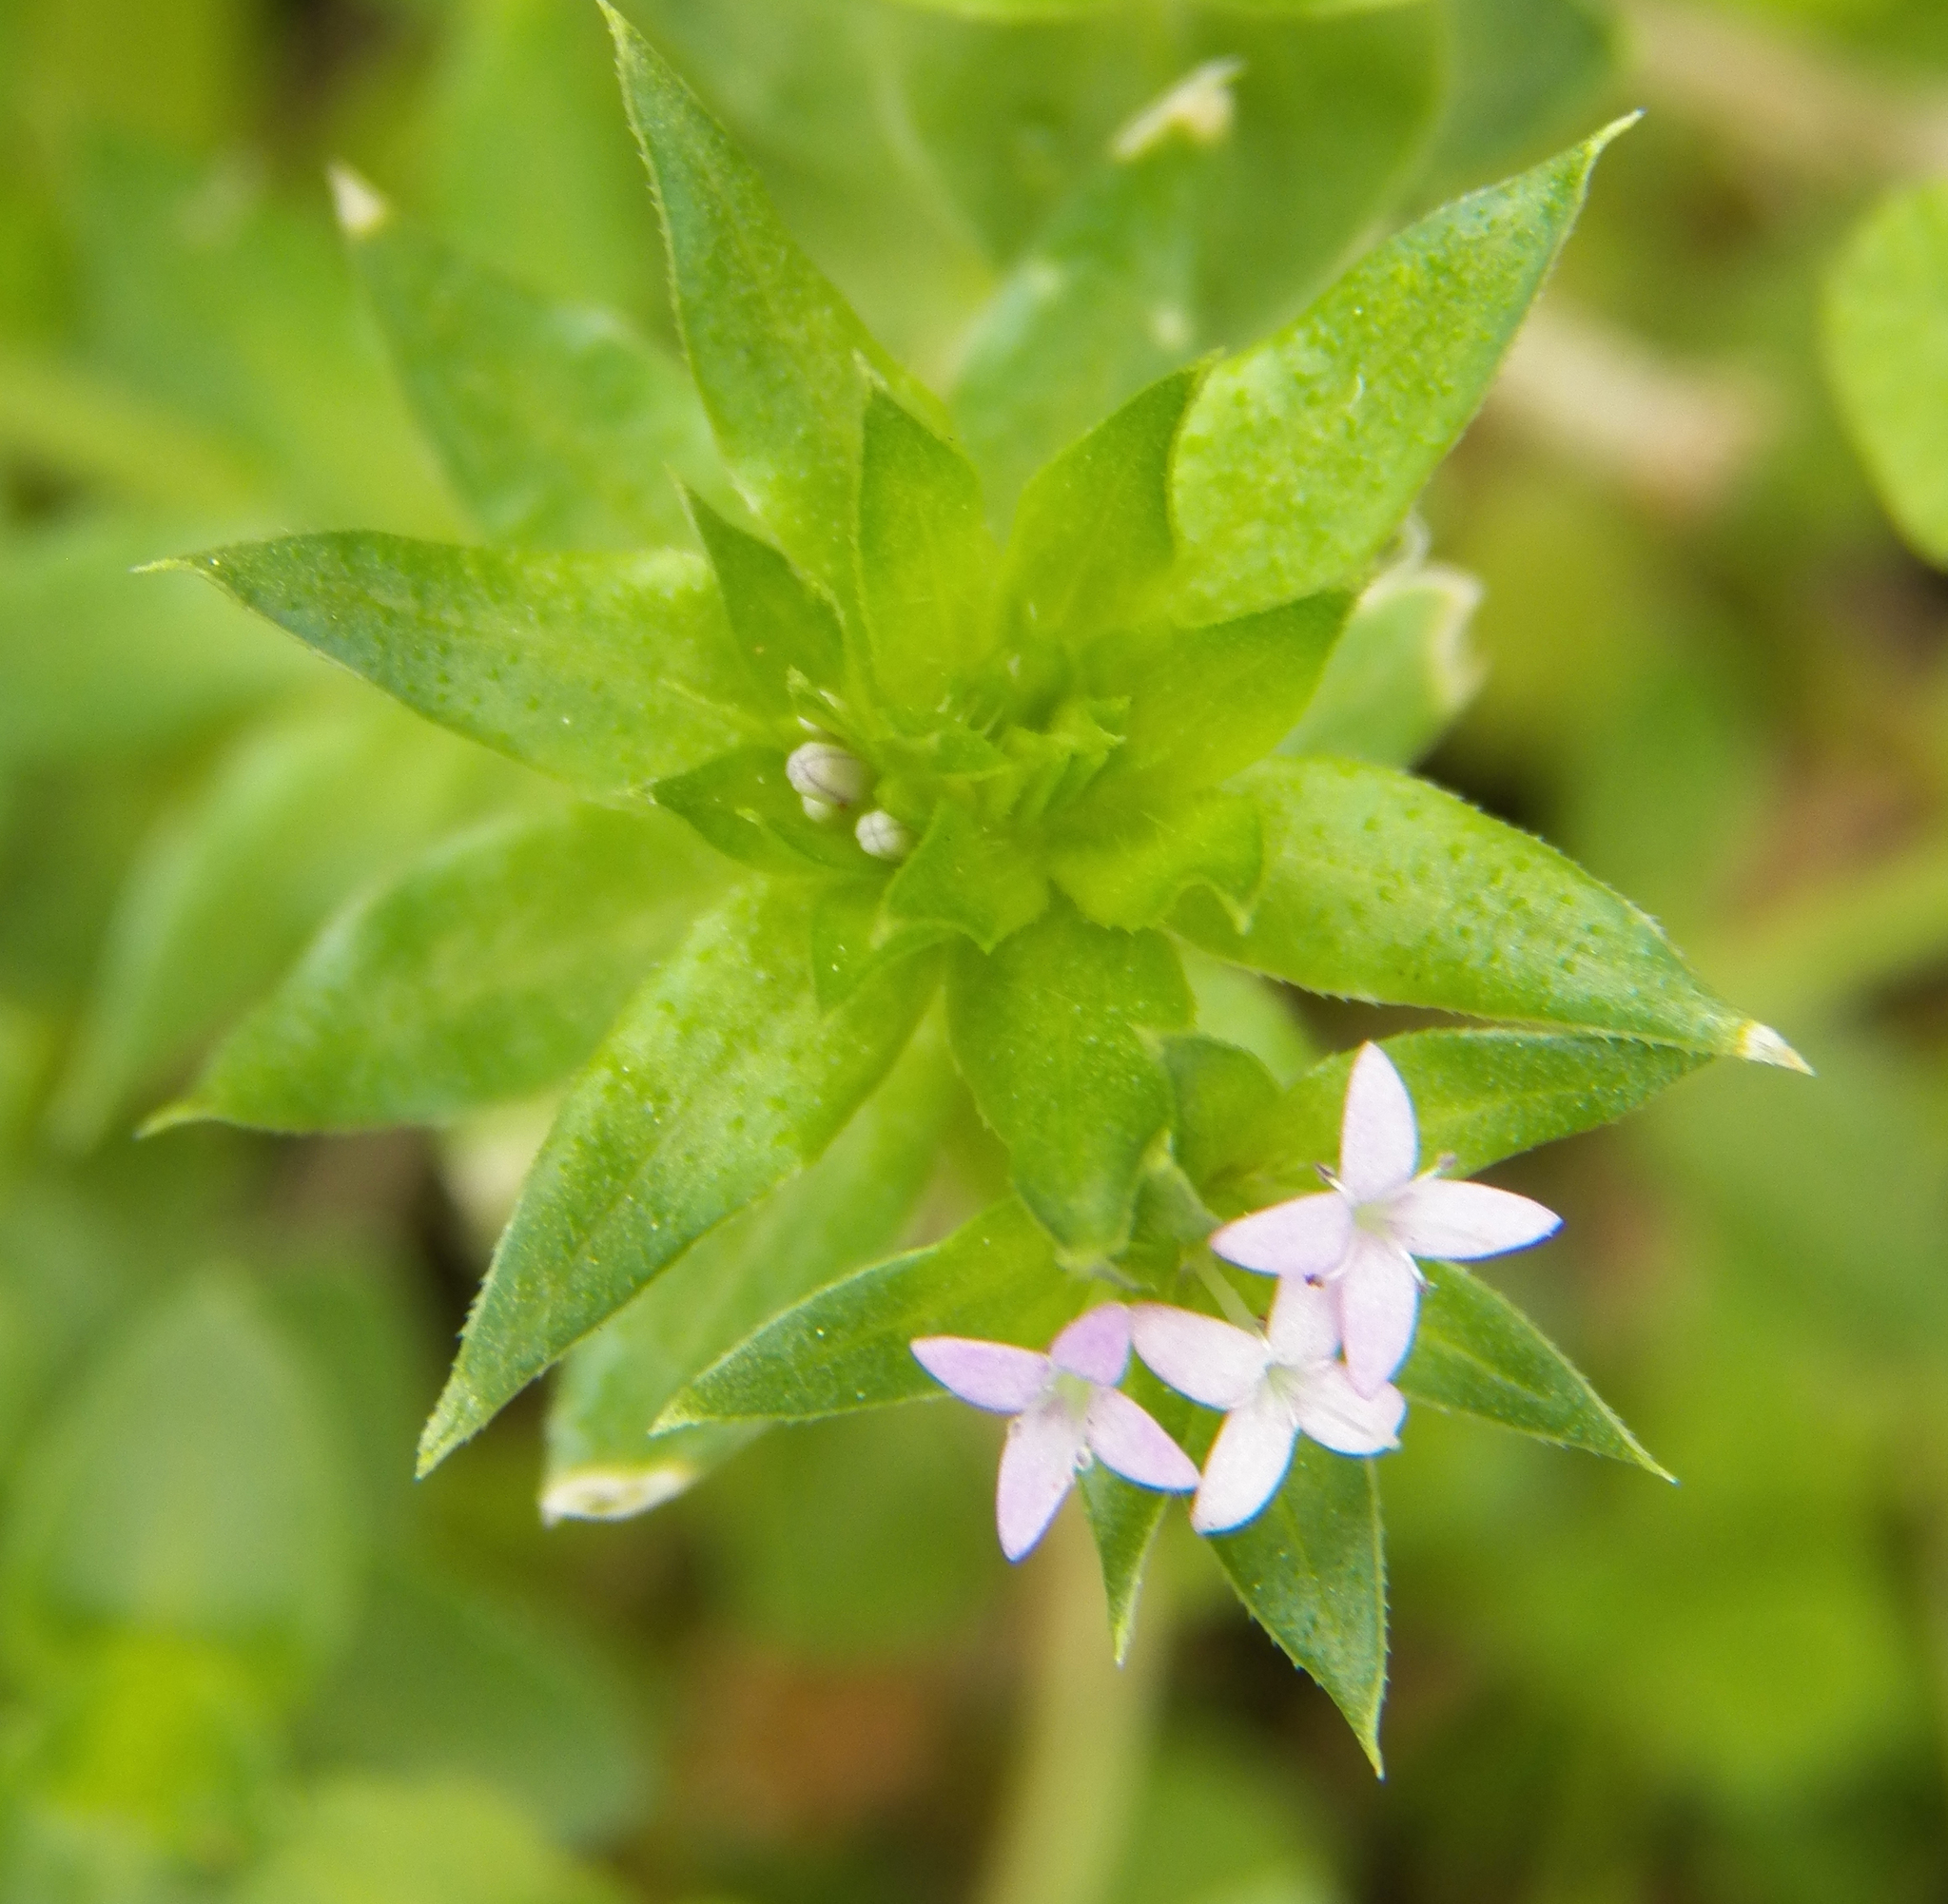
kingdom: Plantae
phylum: Tracheophyta
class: Magnoliopsida
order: Gentianales
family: Rubiaceae
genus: Sherardia
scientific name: Sherardia arvensis
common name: Field madder
